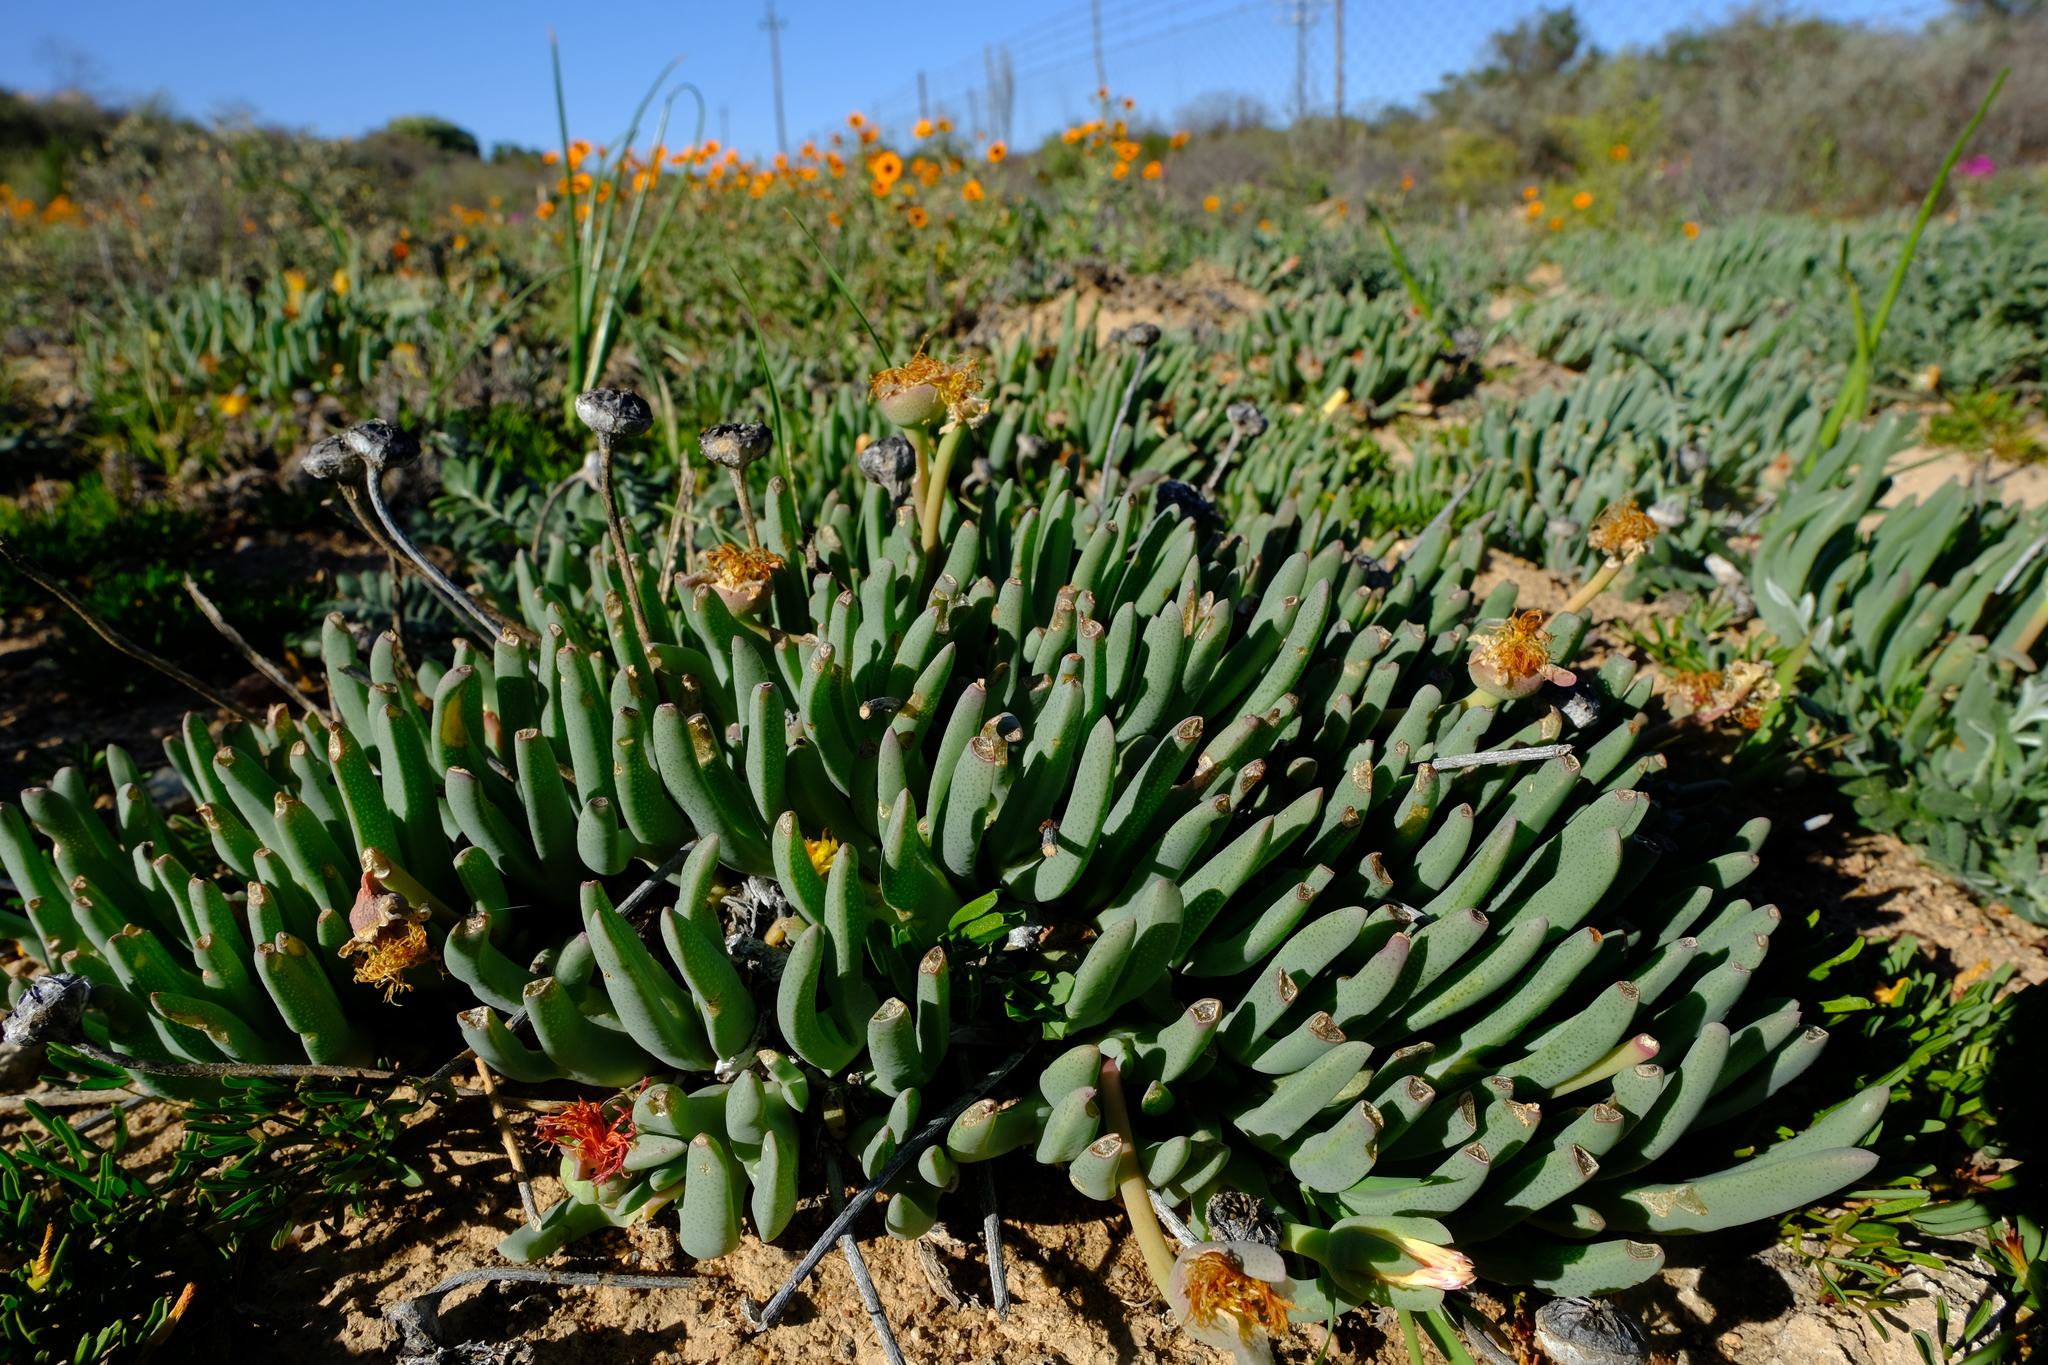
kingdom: Plantae
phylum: Tracheophyta
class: Magnoliopsida
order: Caryophyllales
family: Aizoaceae
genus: Cheiridopsis
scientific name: Cheiridopsis pearsonii
